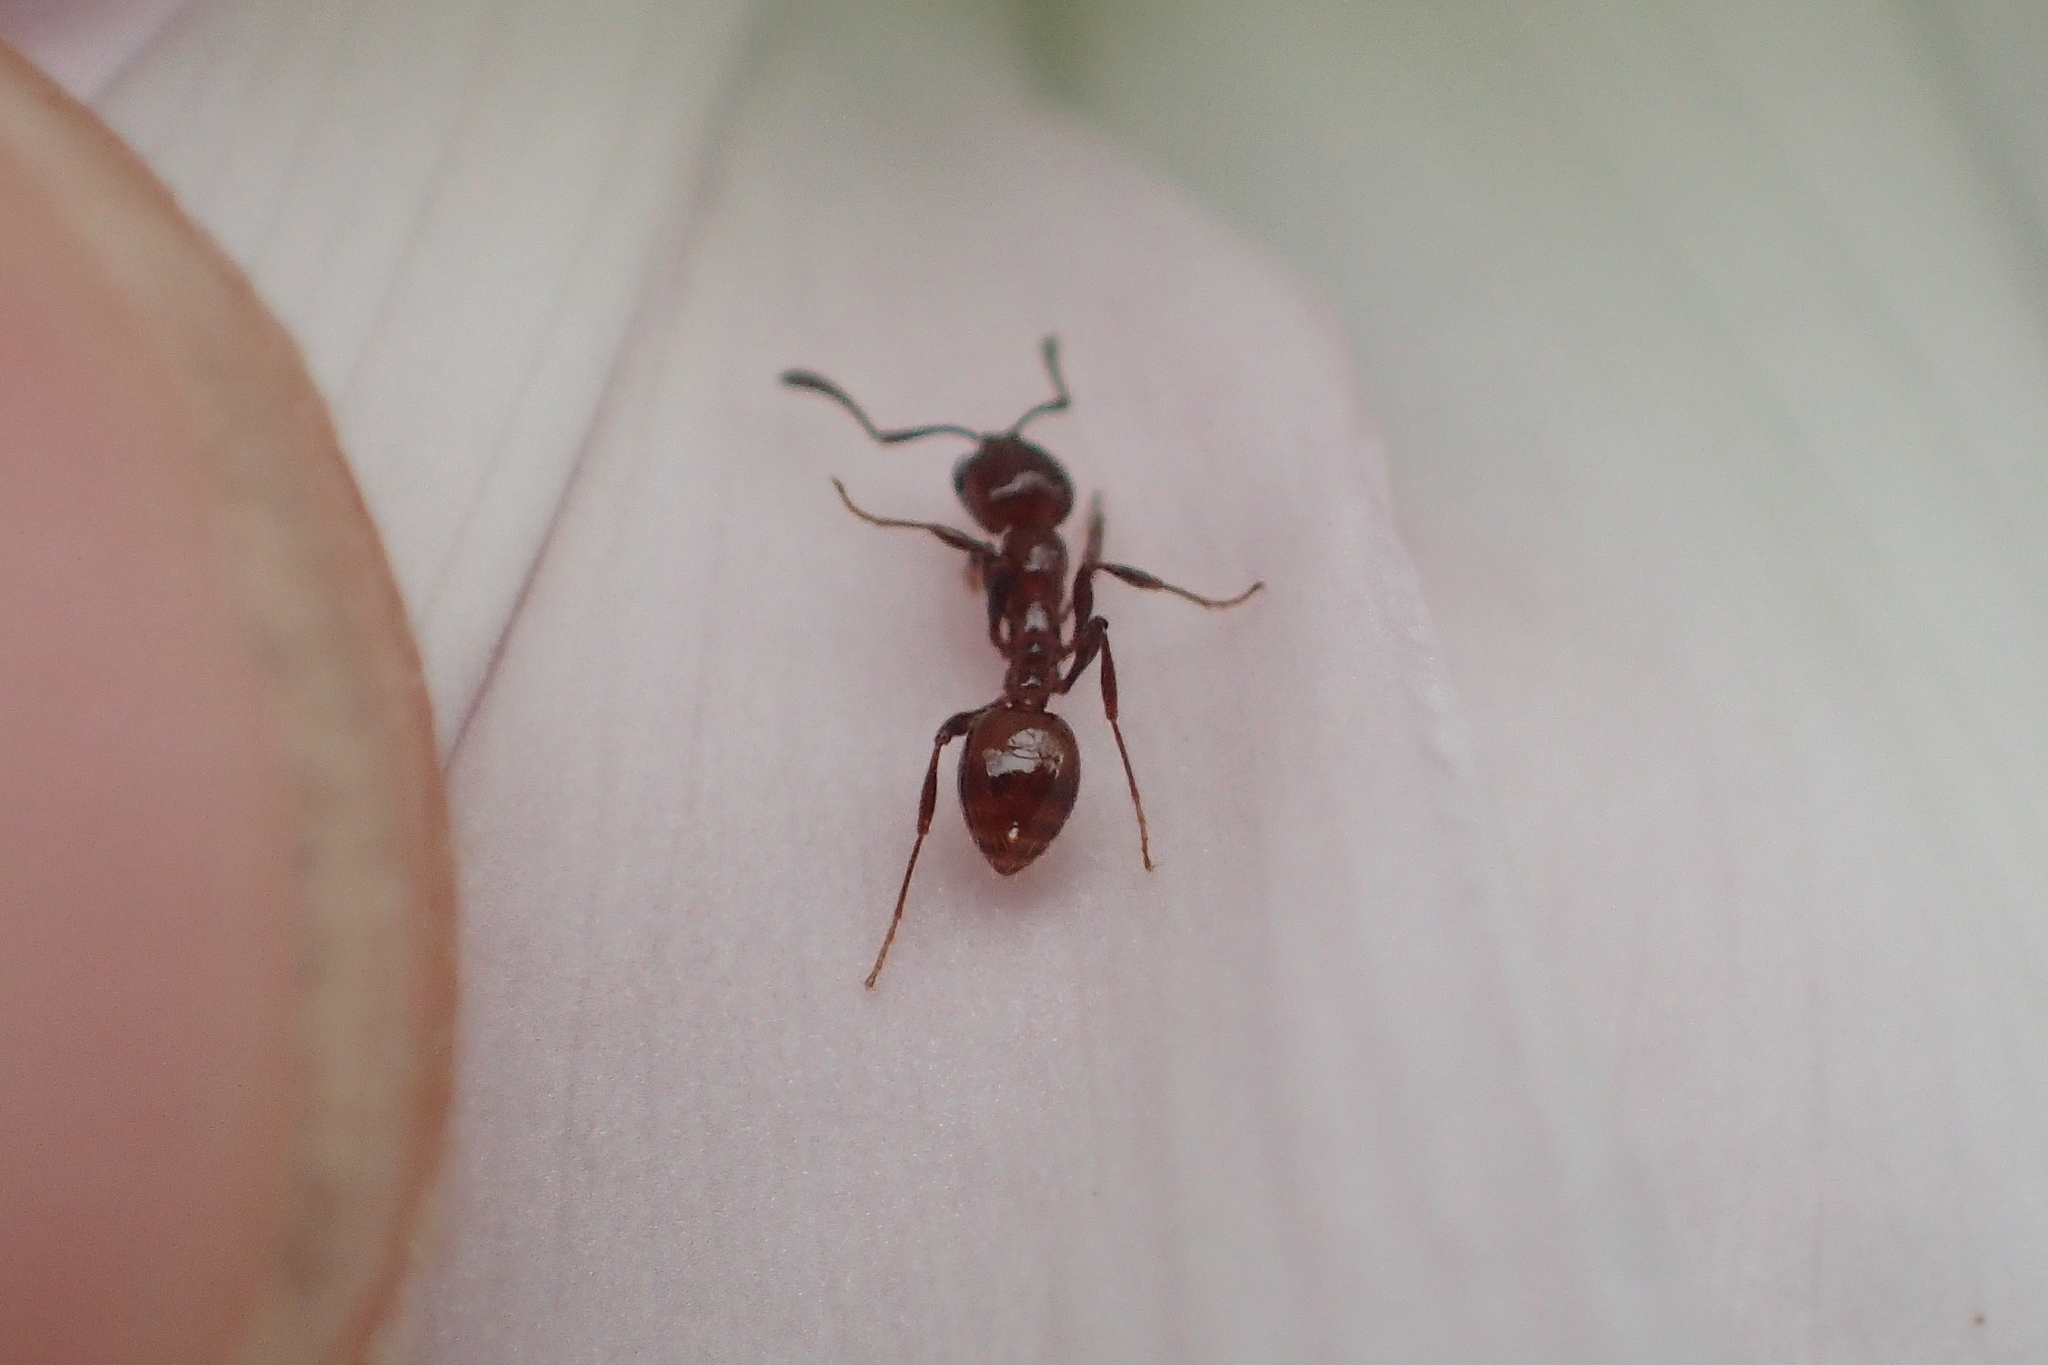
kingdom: Animalia
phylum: Arthropoda
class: Insecta
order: Hymenoptera
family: Formicidae
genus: Monomorium
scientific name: Monomorium antarcticum
